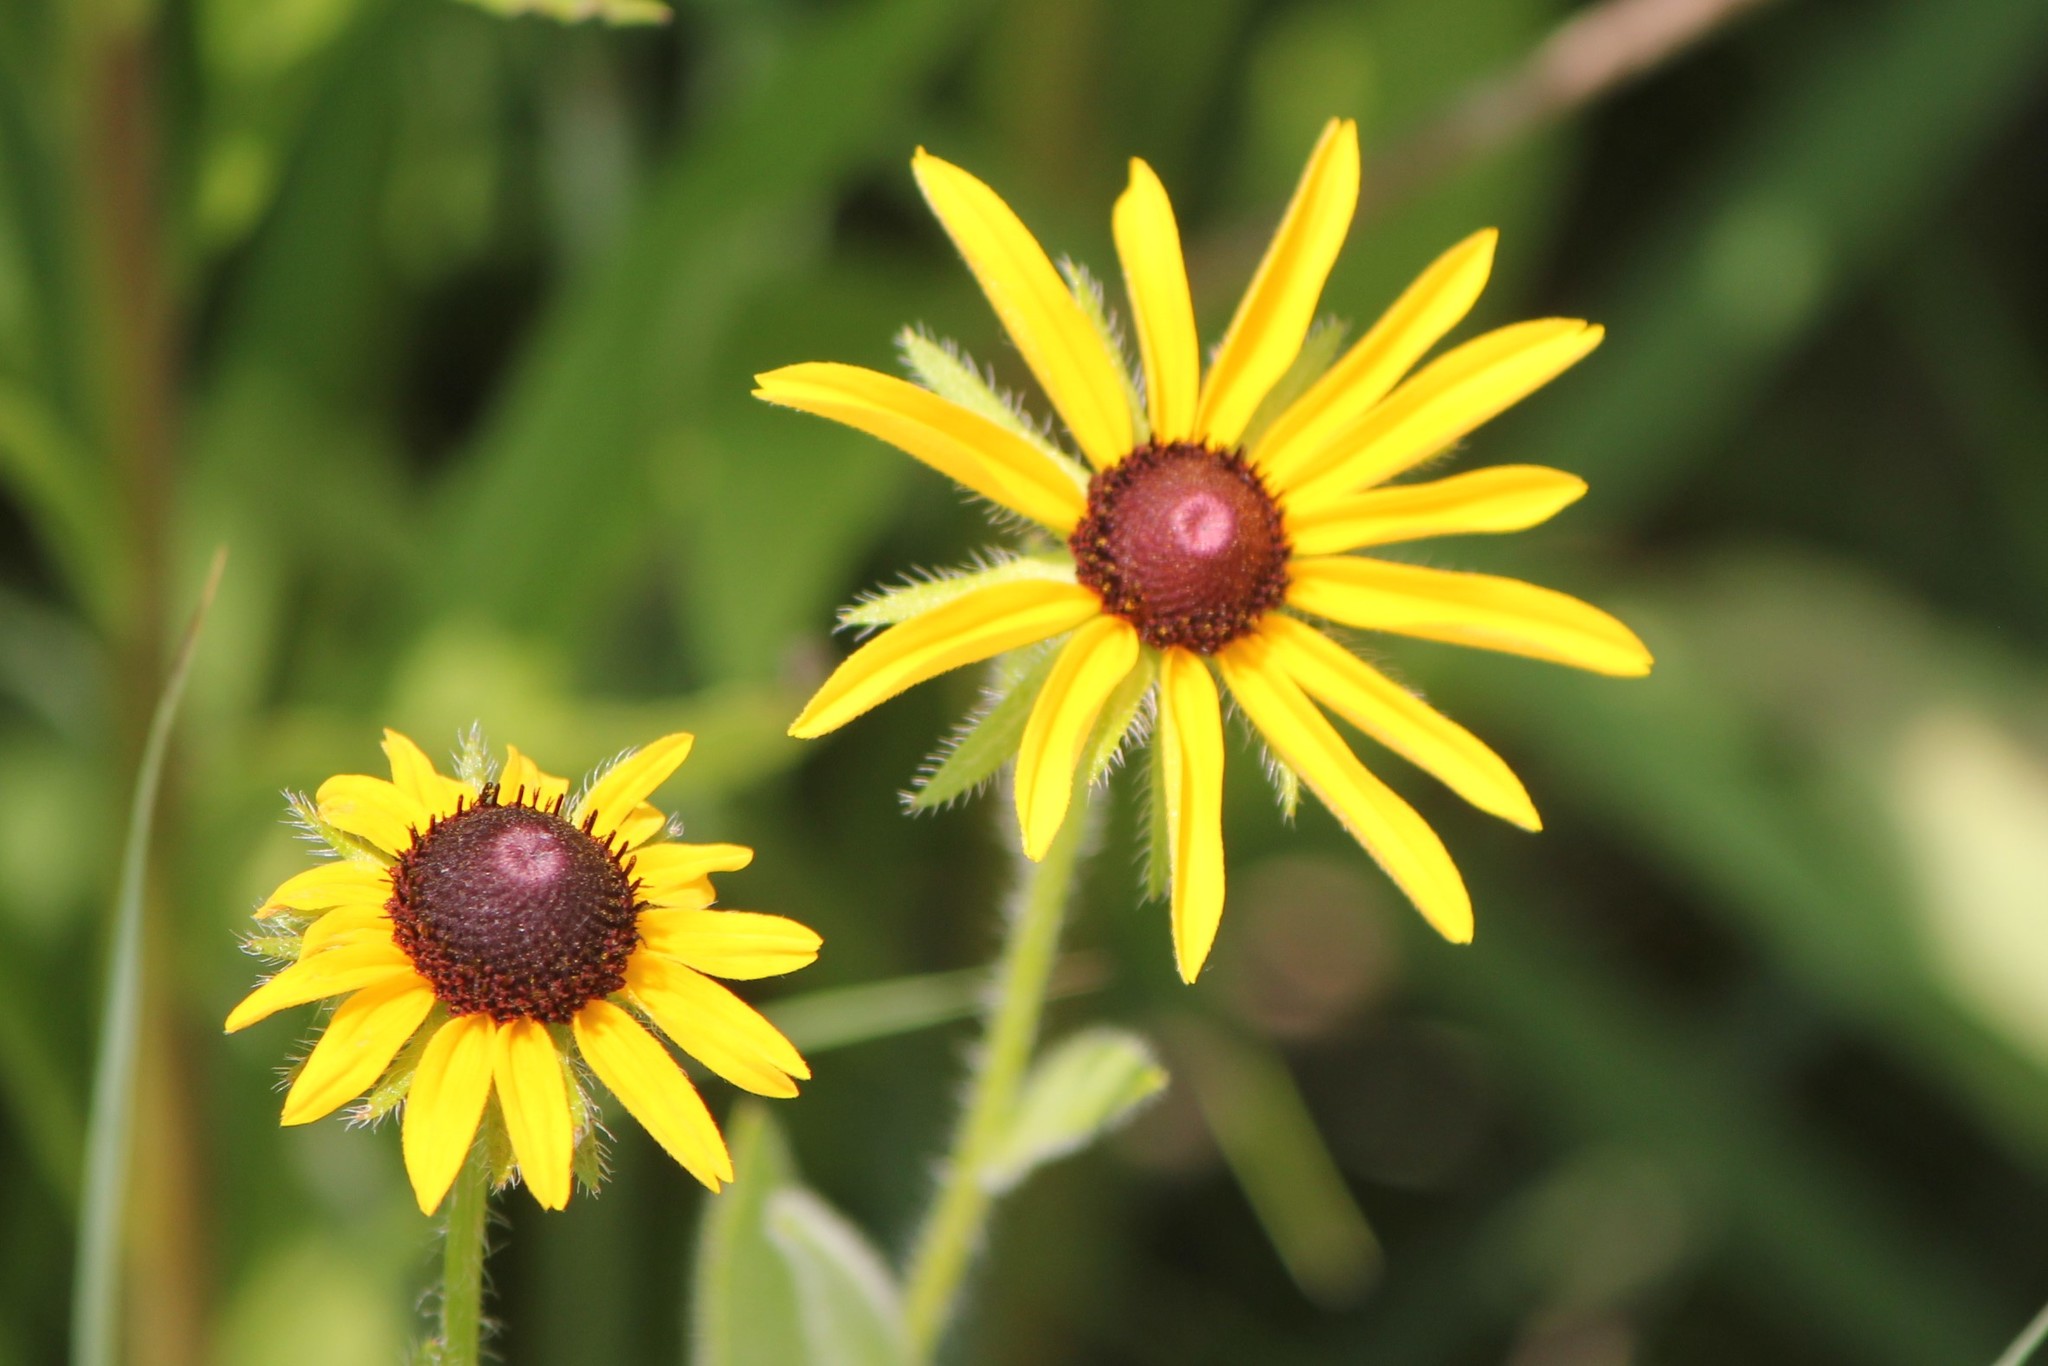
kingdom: Plantae
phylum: Tracheophyta
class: Magnoliopsida
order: Asterales
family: Asteraceae
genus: Rudbeckia
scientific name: Rudbeckia hirta
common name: Black-eyed-susan
